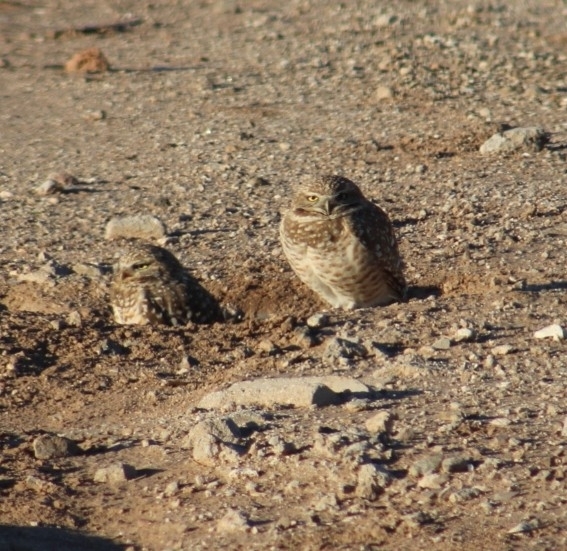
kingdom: Animalia
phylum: Chordata
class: Aves
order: Strigiformes
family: Strigidae
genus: Athene
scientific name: Athene cunicularia
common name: Burrowing owl
